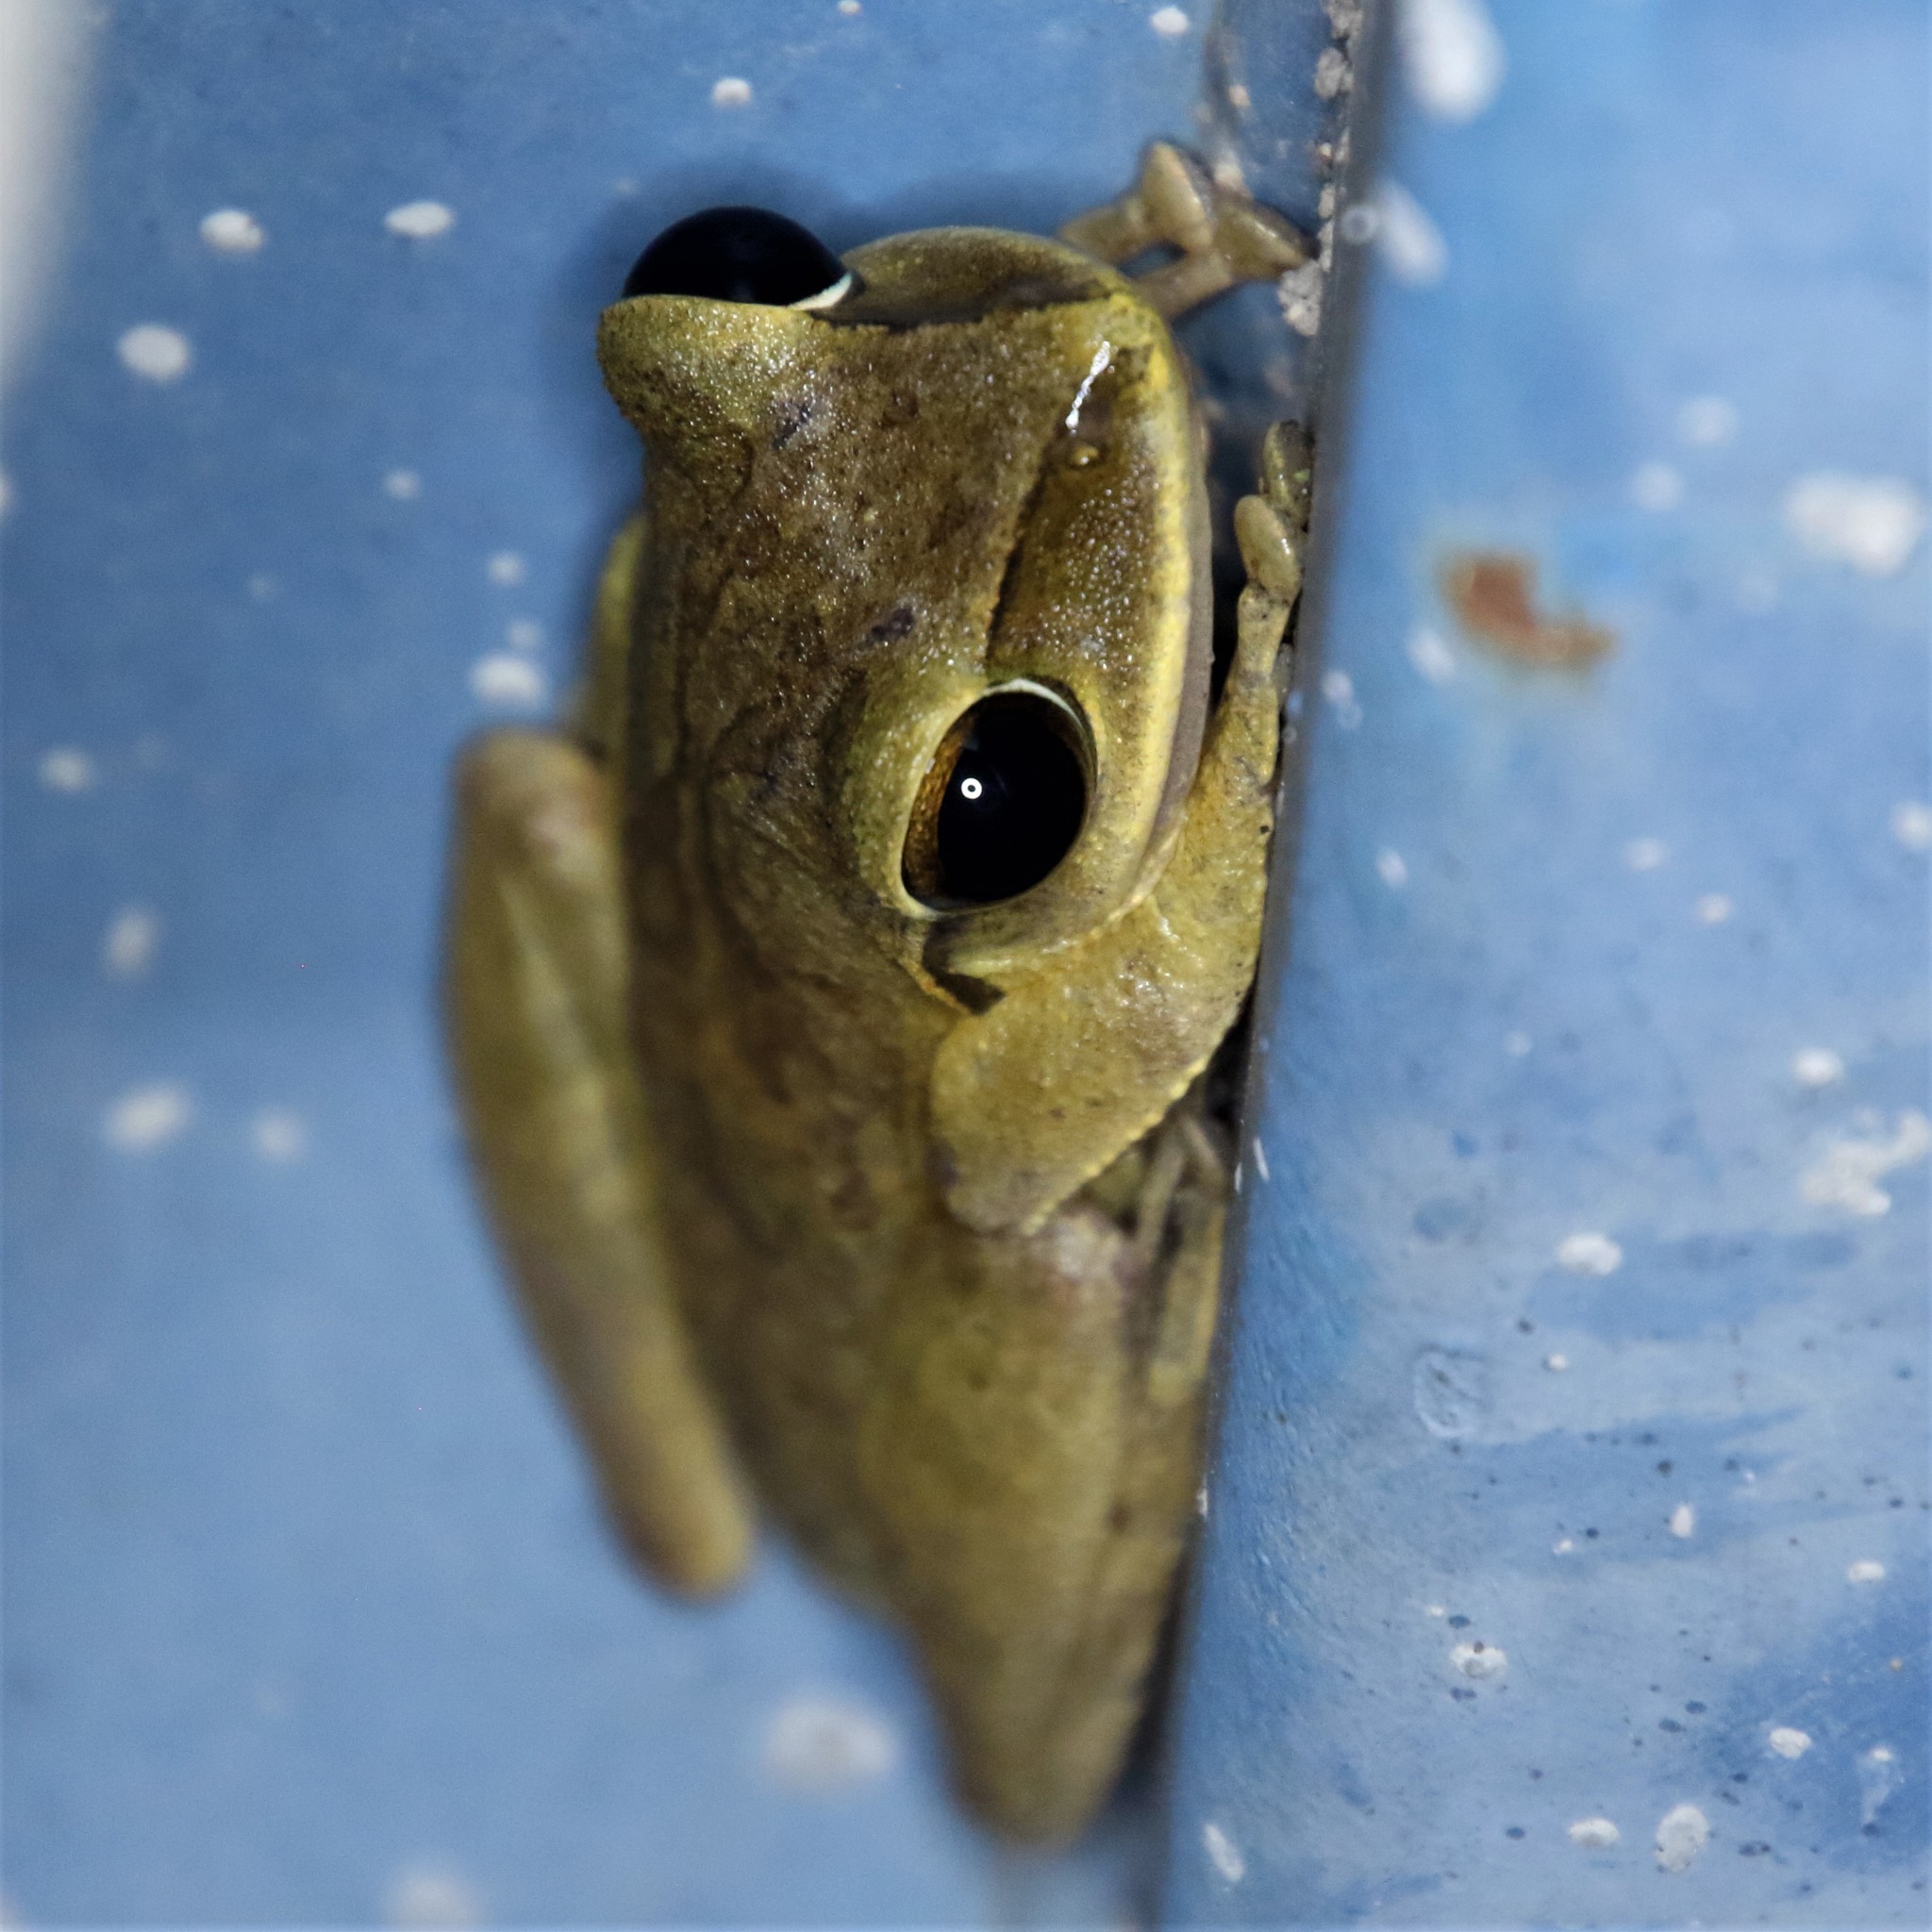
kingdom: Animalia
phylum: Chordata
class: Amphibia
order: Anura
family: Rhacophoridae
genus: Polypedates
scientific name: Polypedates megacephalus
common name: Hong kong whipping frog
